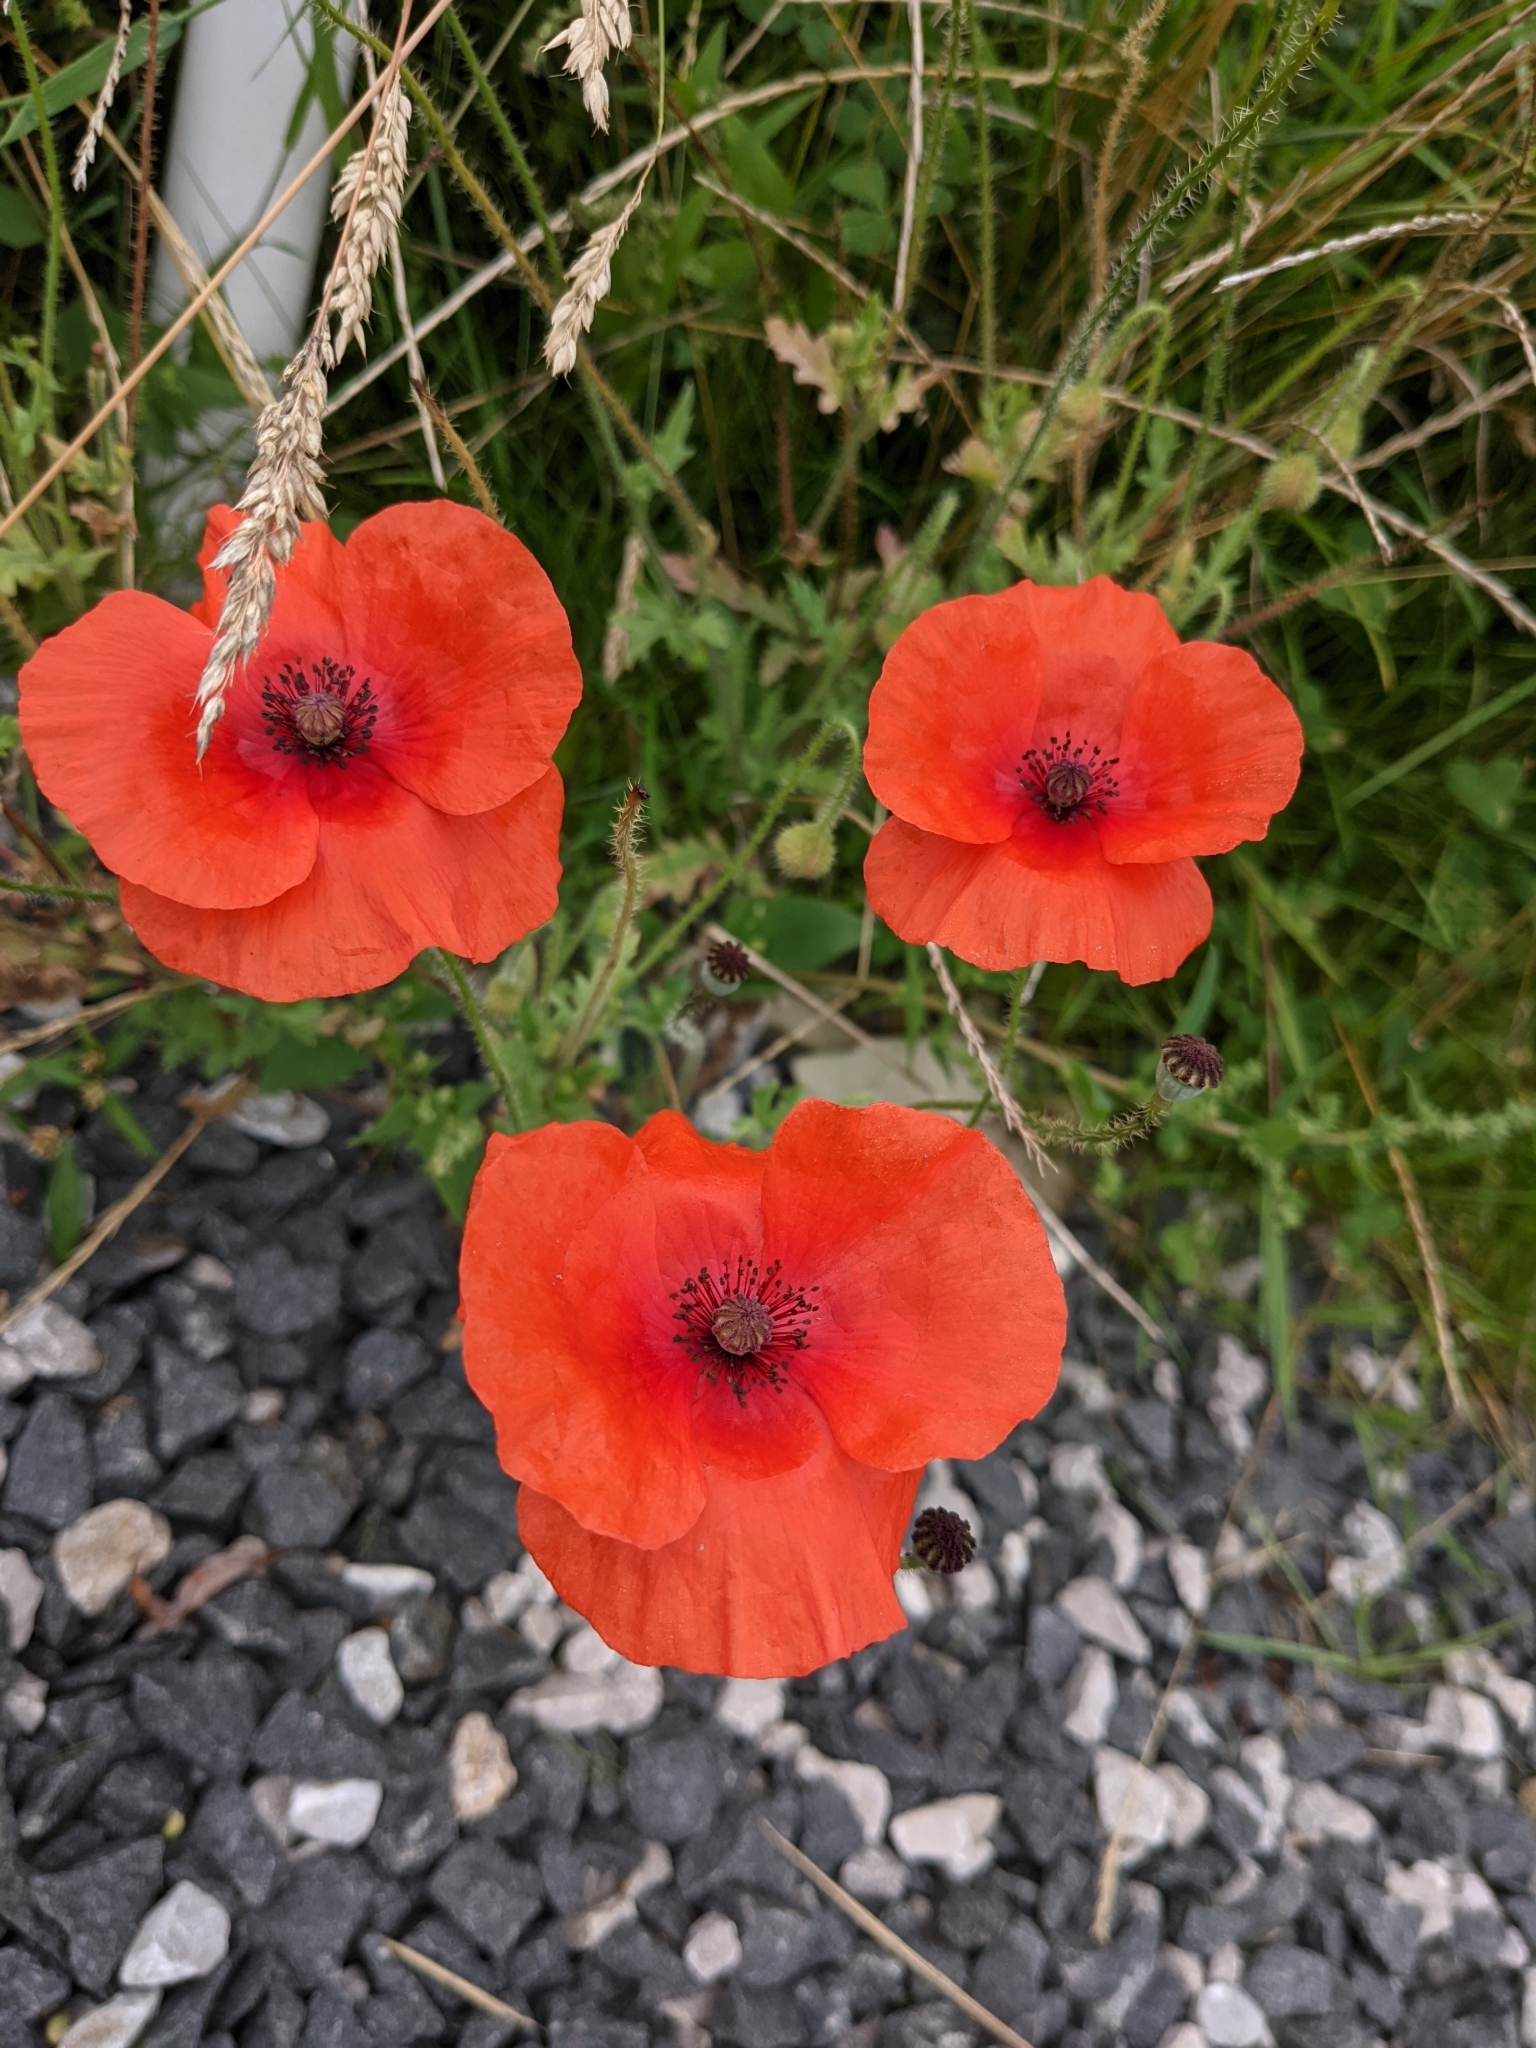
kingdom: Plantae
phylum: Tracheophyta
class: Magnoliopsida
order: Ranunculales
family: Papaveraceae
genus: Papaver
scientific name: Papaver rhoeas
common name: Corn poppy
